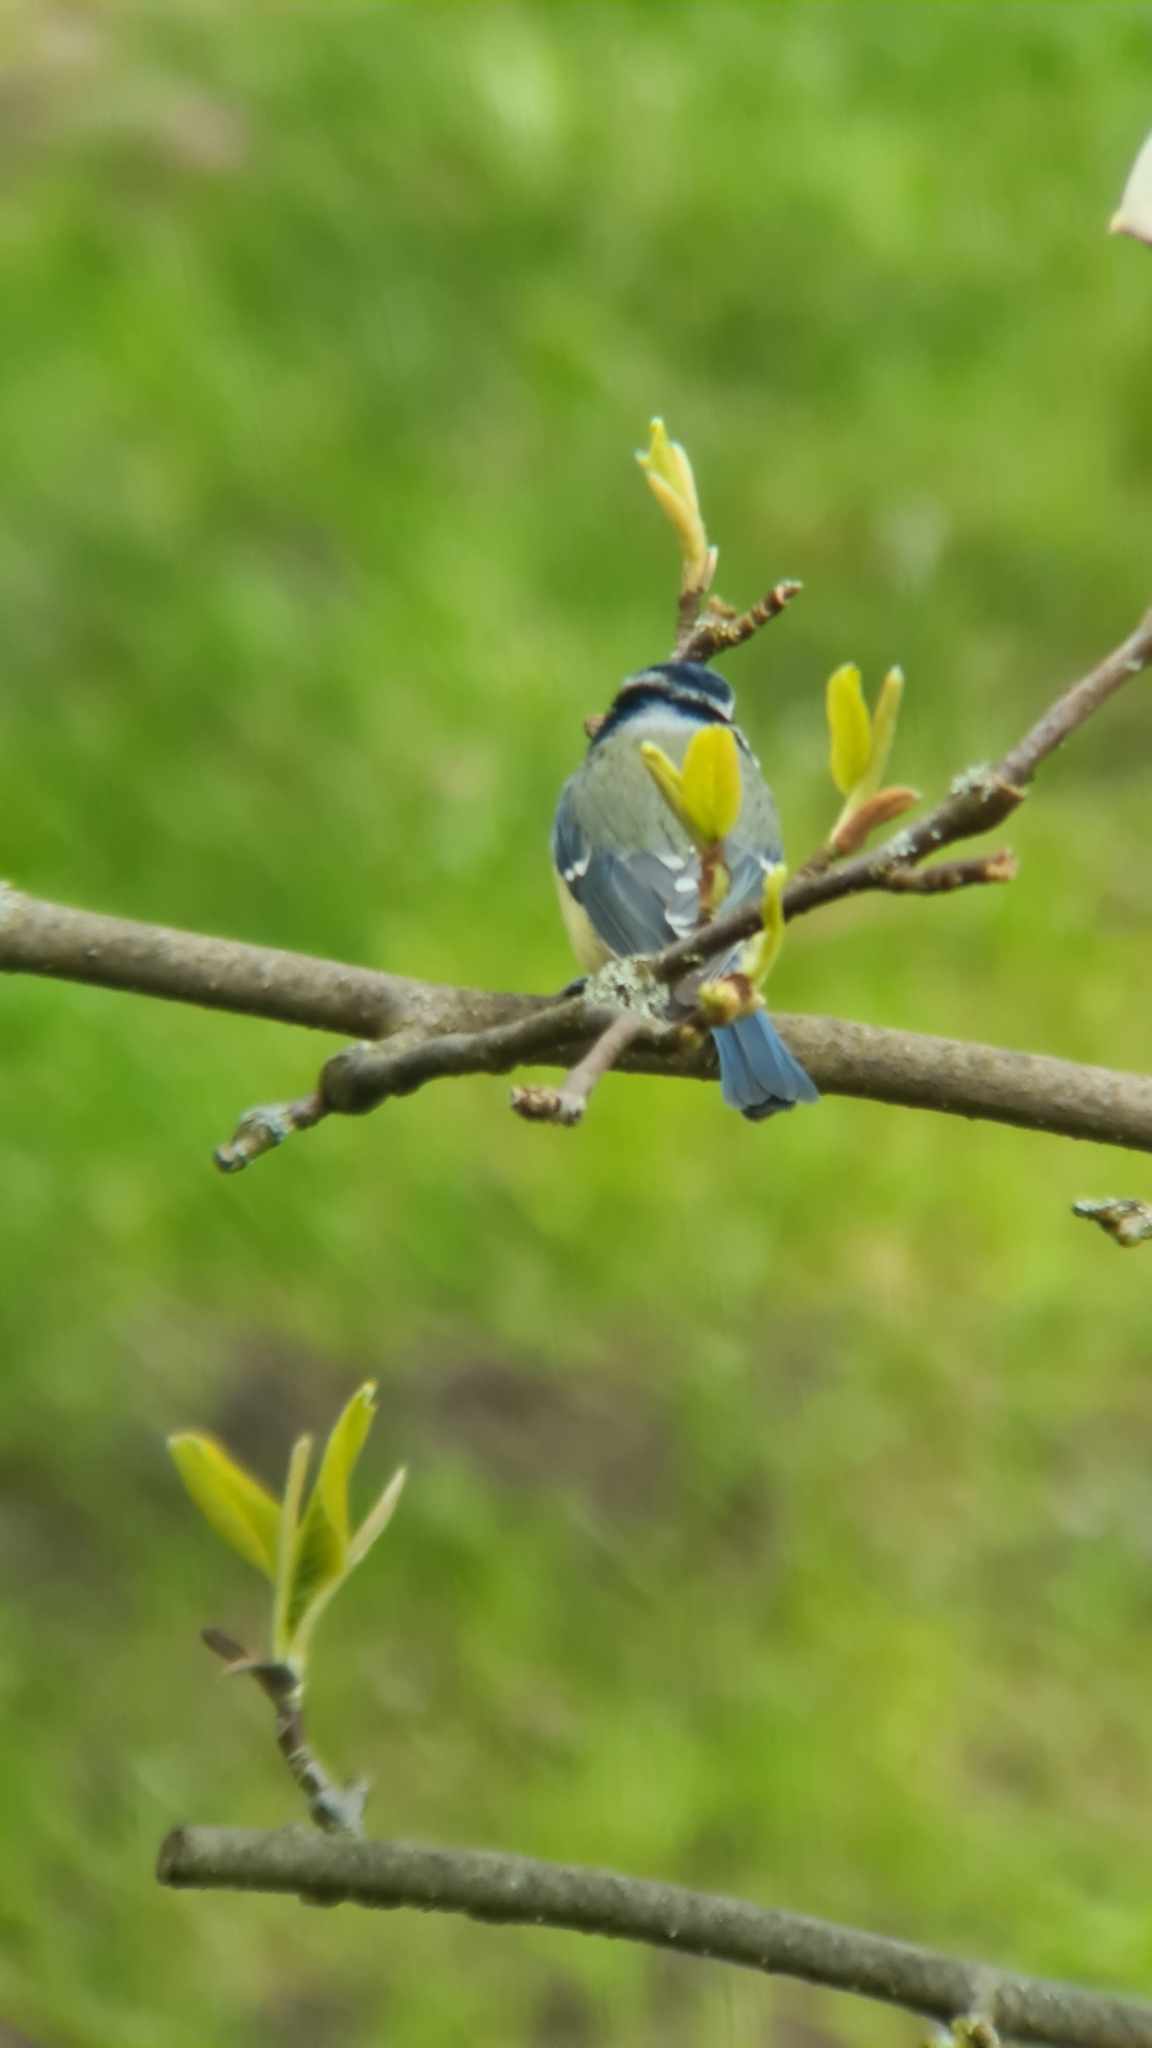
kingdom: Animalia
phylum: Chordata
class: Aves
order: Passeriformes
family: Paridae
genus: Cyanistes
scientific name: Cyanistes caeruleus
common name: Eurasian blue tit
